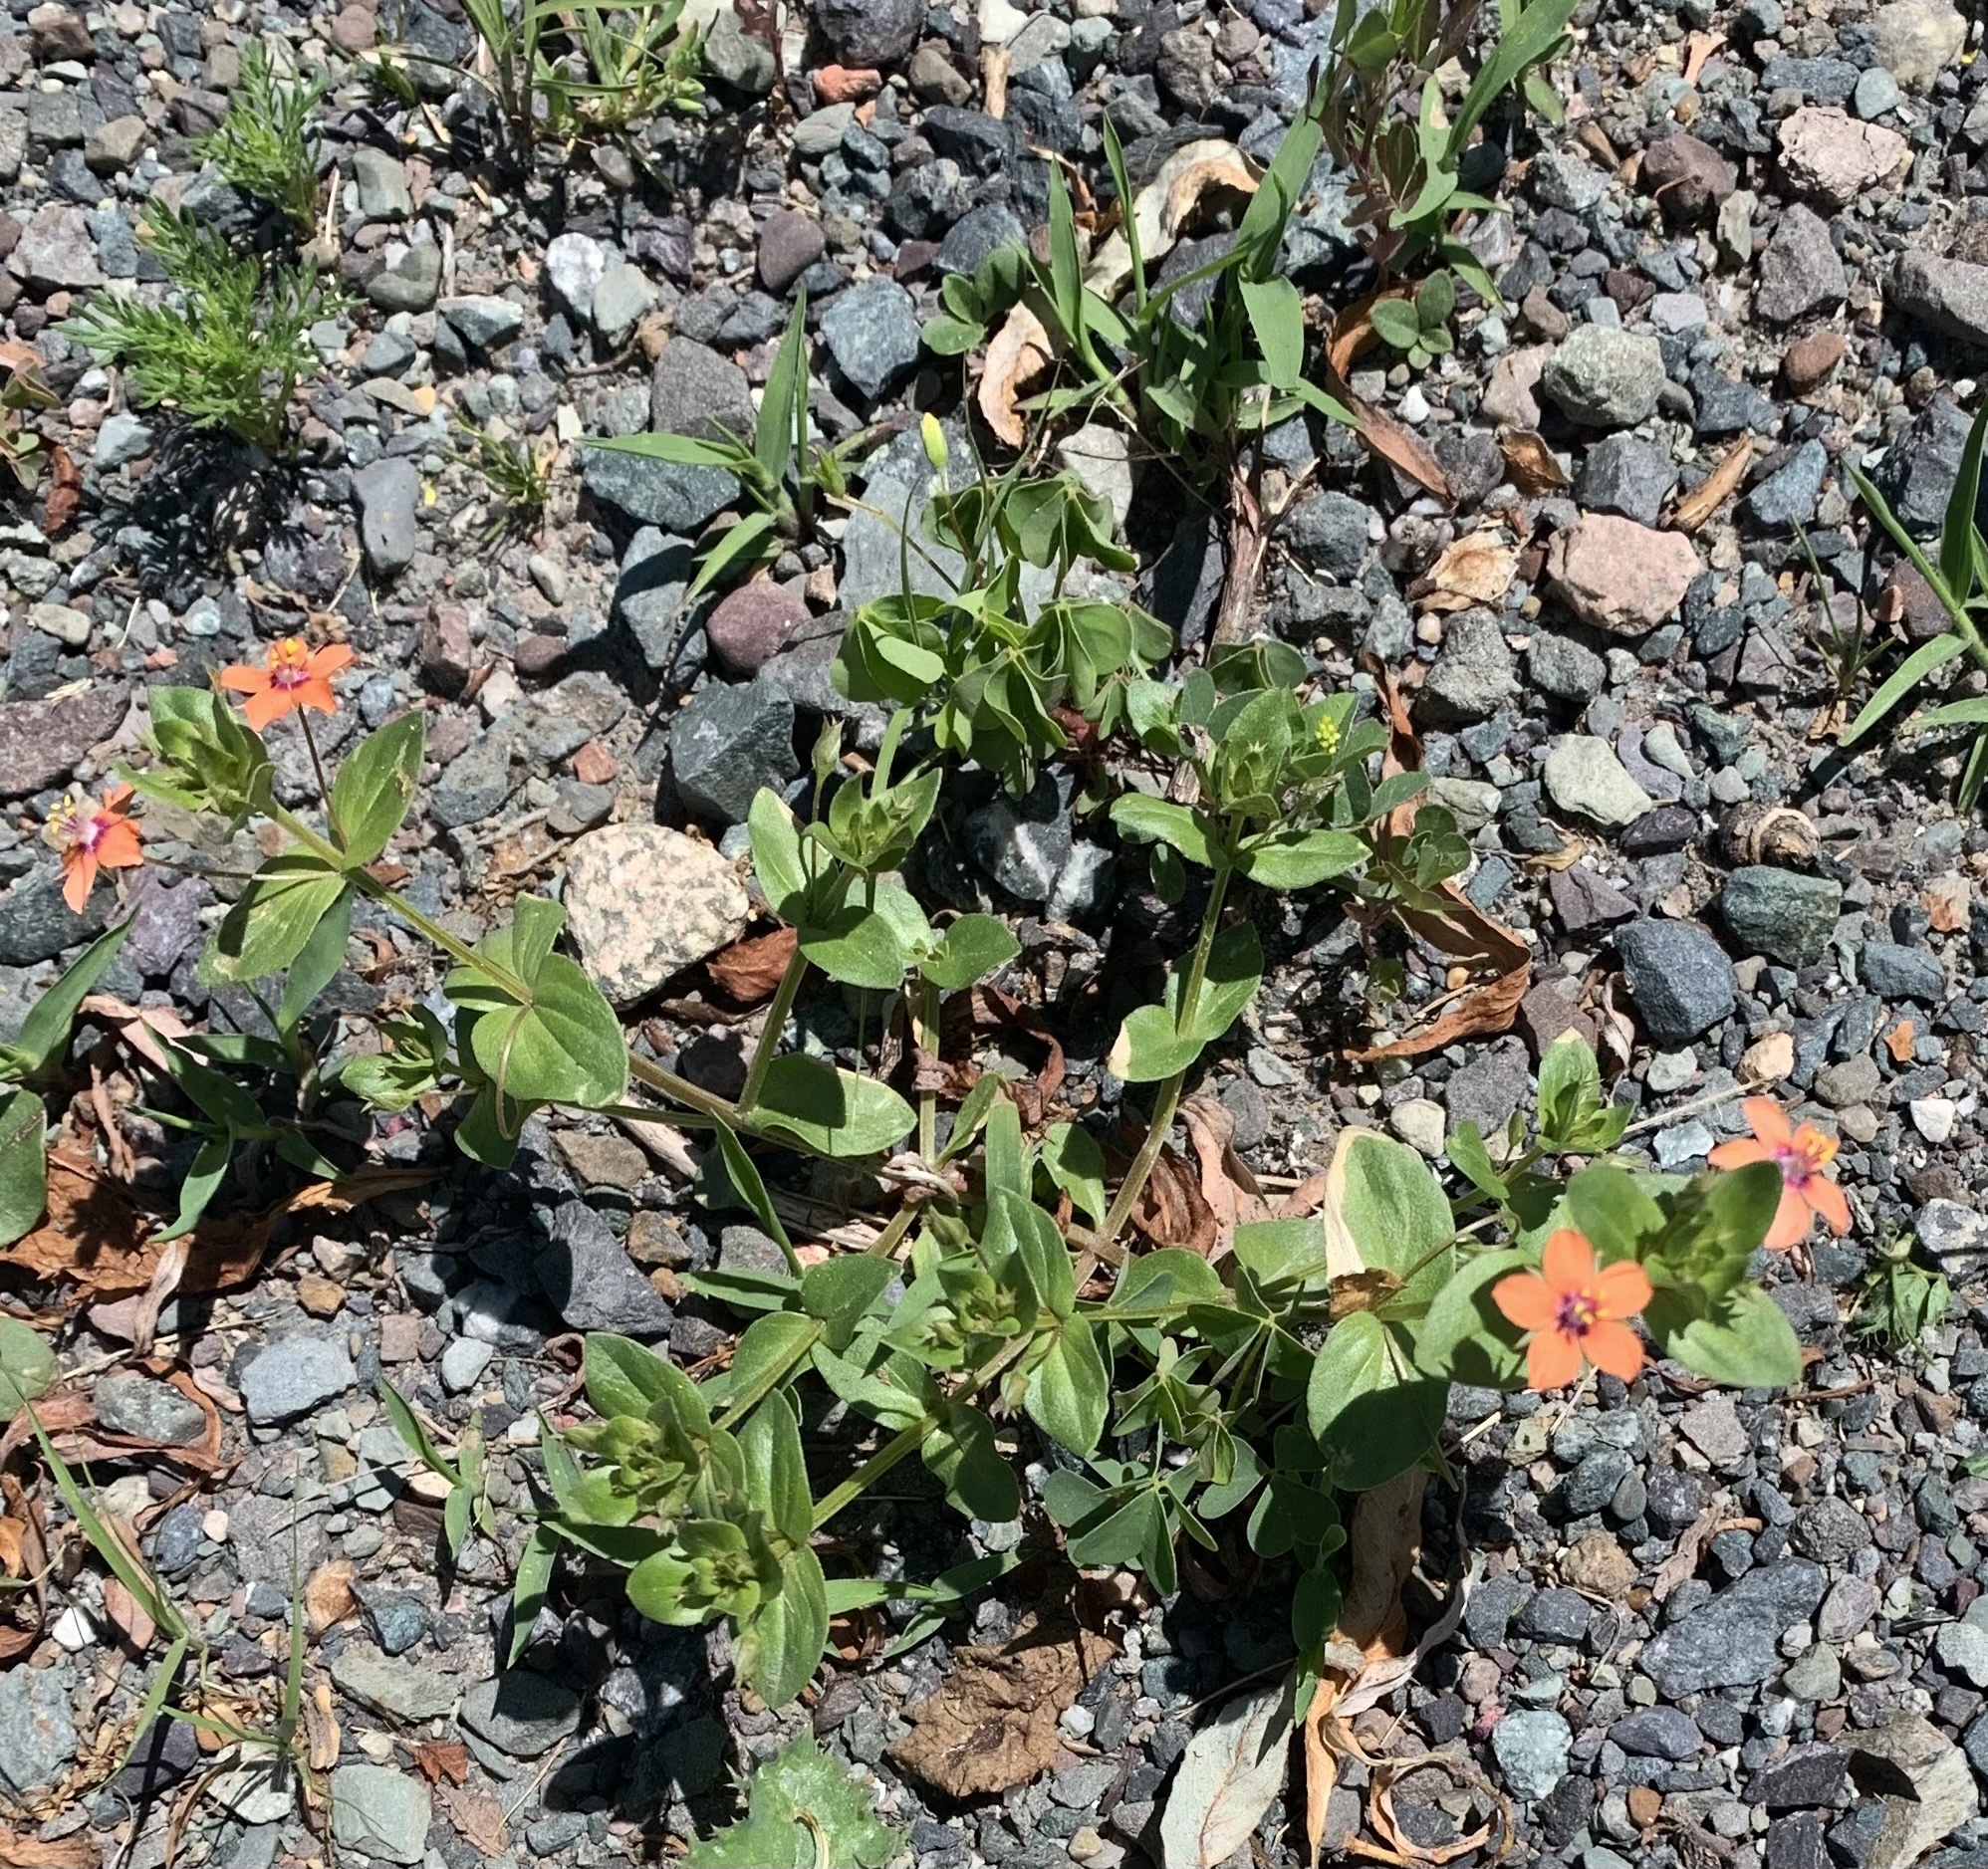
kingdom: Plantae
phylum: Tracheophyta
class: Magnoliopsida
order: Ericales
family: Primulaceae
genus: Lysimachia
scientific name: Lysimachia arvensis
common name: Scarlet pimpernel
